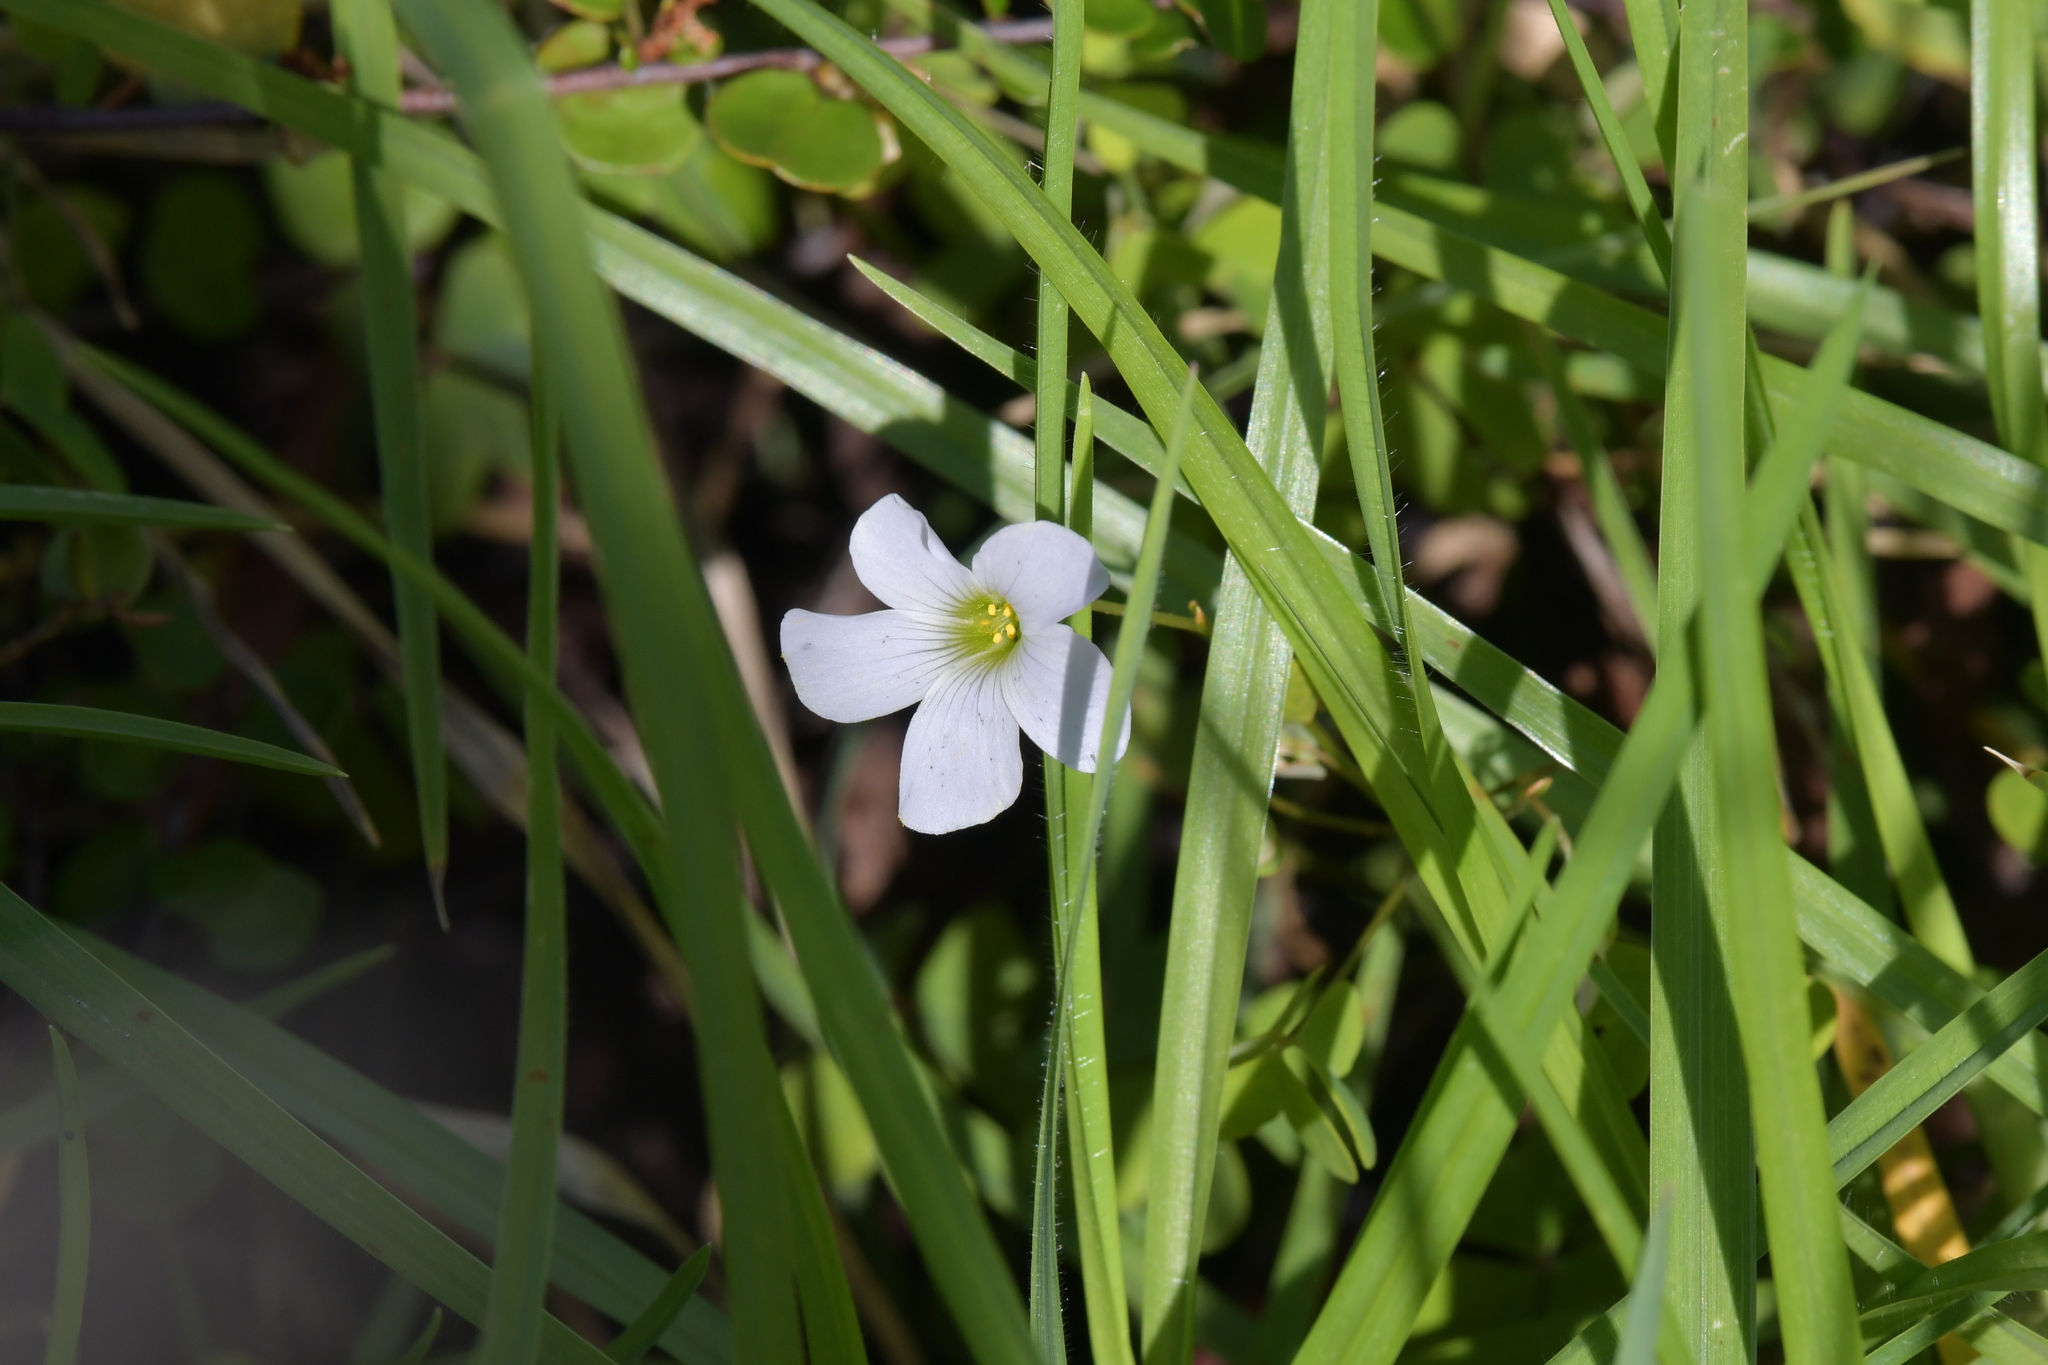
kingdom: Plantae
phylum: Tracheophyta
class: Magnoliopsida
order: Oxalidales
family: Oxalidaceae
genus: Oxalis
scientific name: Oxalis incarnata
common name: Pale pink-sorrel
